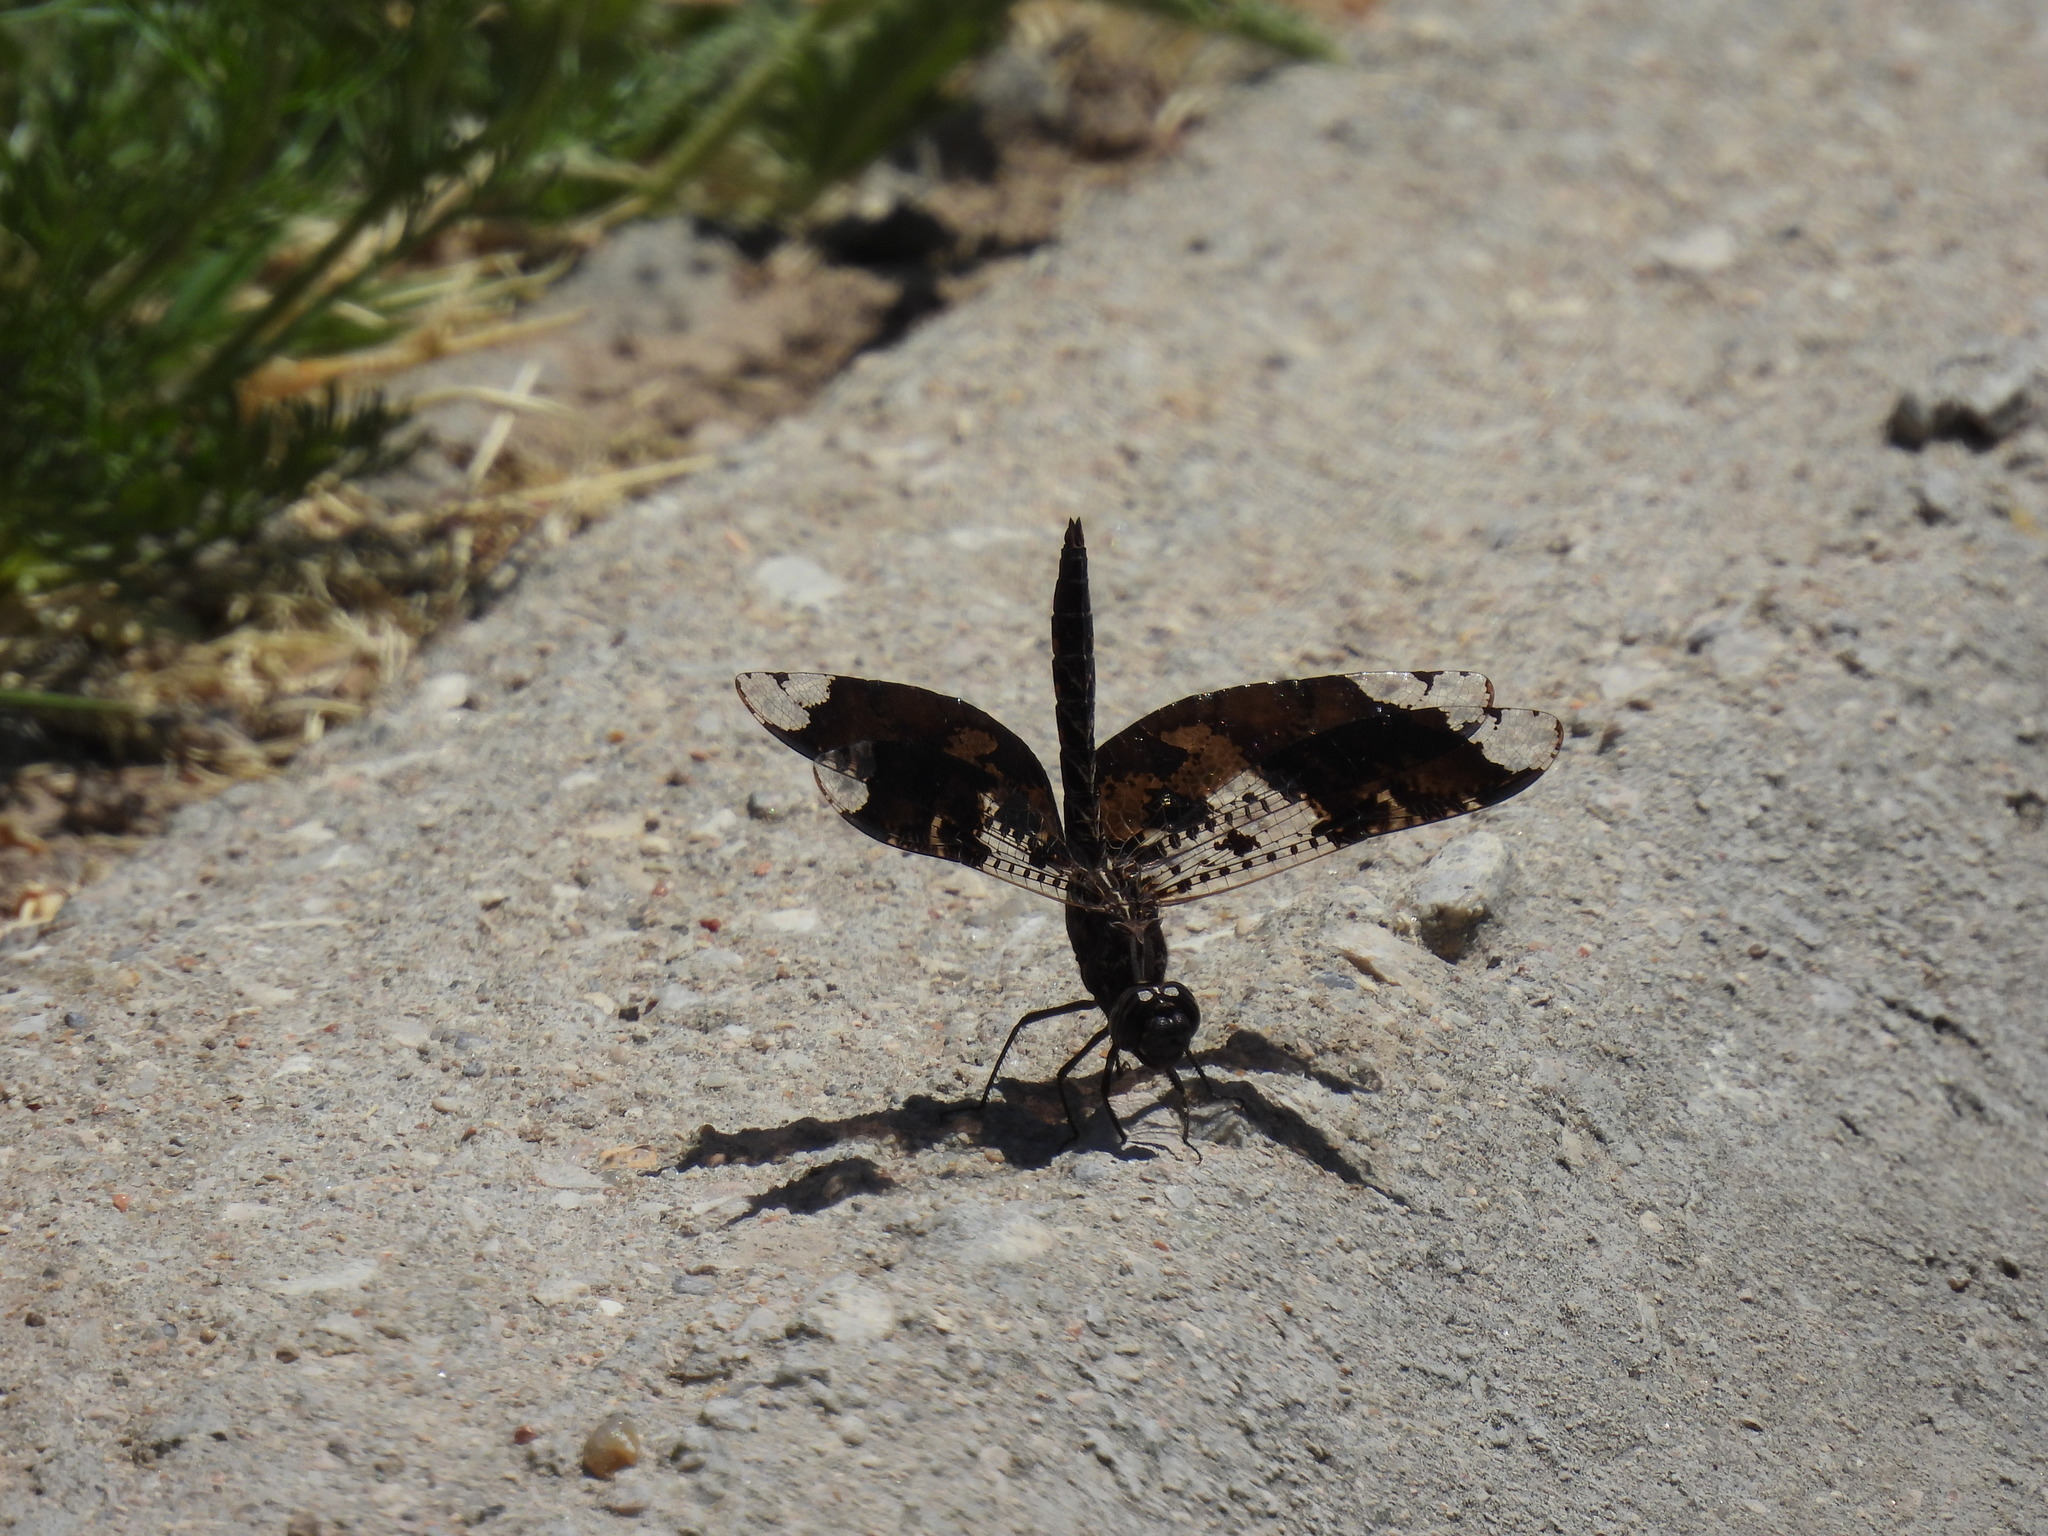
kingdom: Animalia
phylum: Arthropoda
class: Insecta
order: Odonata
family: Libellulidae
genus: Pseudoleon
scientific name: Pseudoleon superbus
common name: Filigree skimmer
